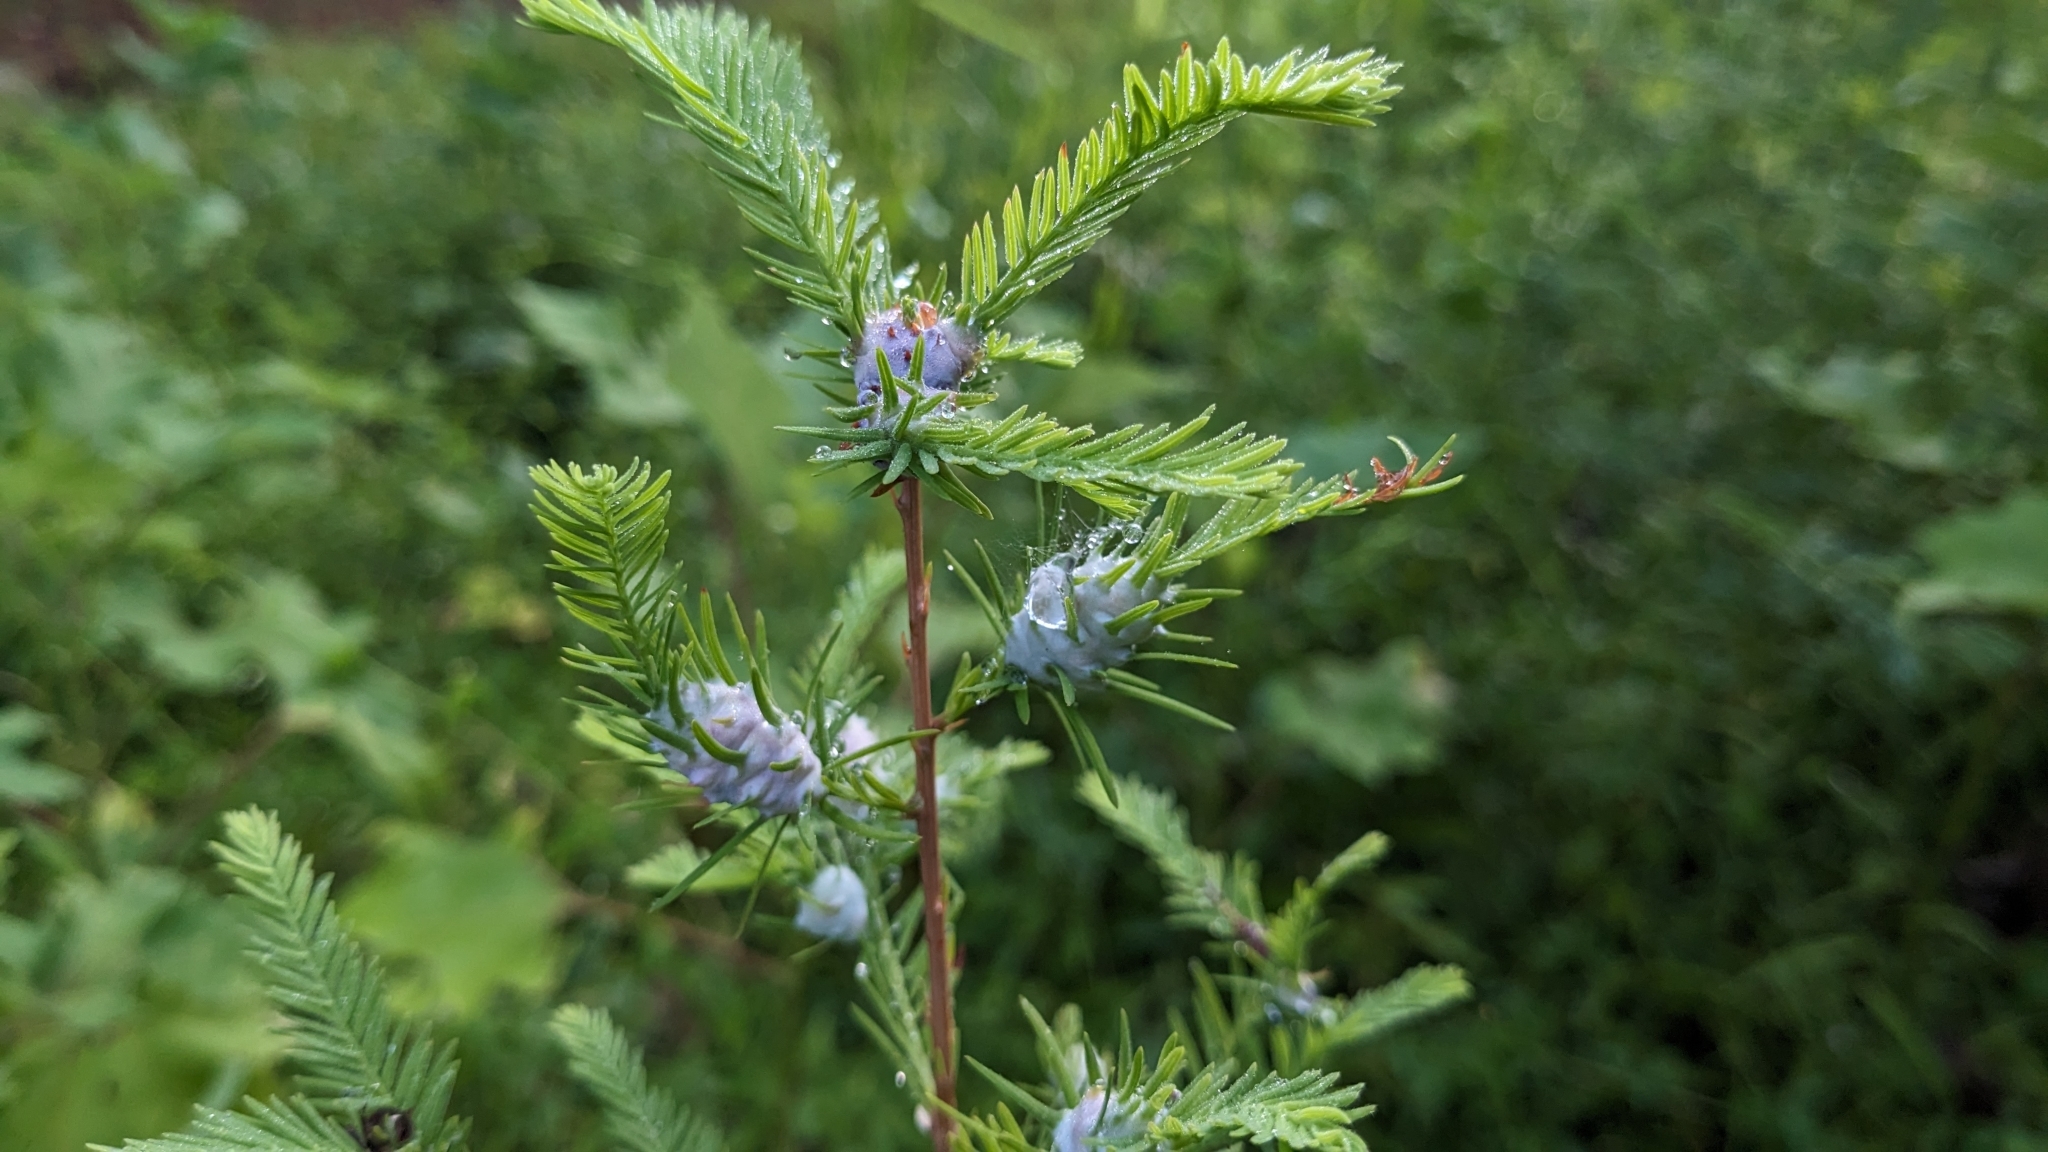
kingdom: Animalia
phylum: Arthropoda
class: Insecta
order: Diptera
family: Cecidomyiidae
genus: Taxodiomyia
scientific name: Taxodiomyia cupressiananassa
